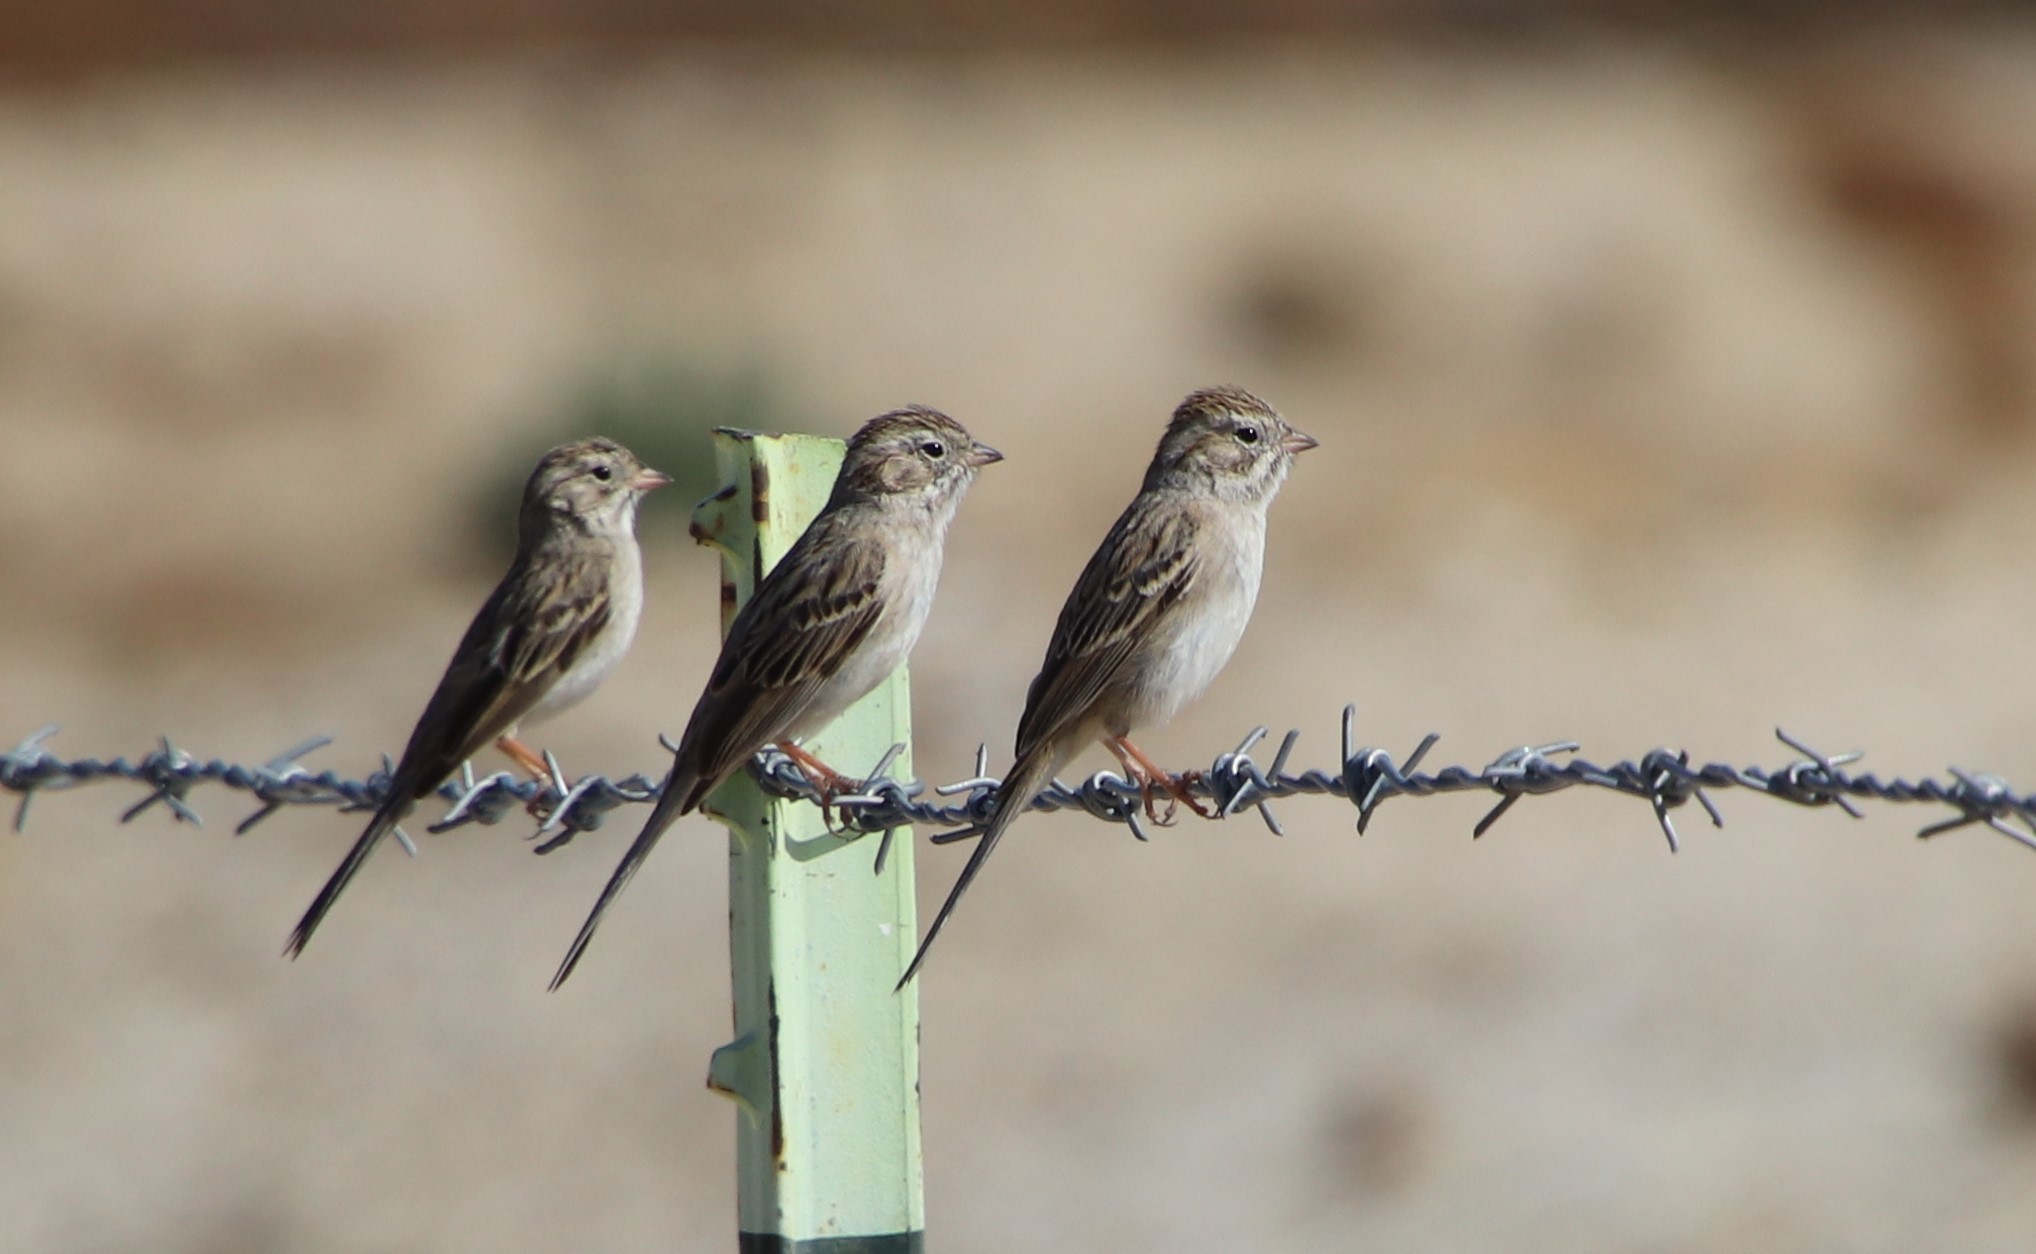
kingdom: Animalia
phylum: Chordata
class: Aves
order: Passeriformes
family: Passerellidae
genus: Spizella
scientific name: Spizella breweri
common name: Brewer's sparrow
